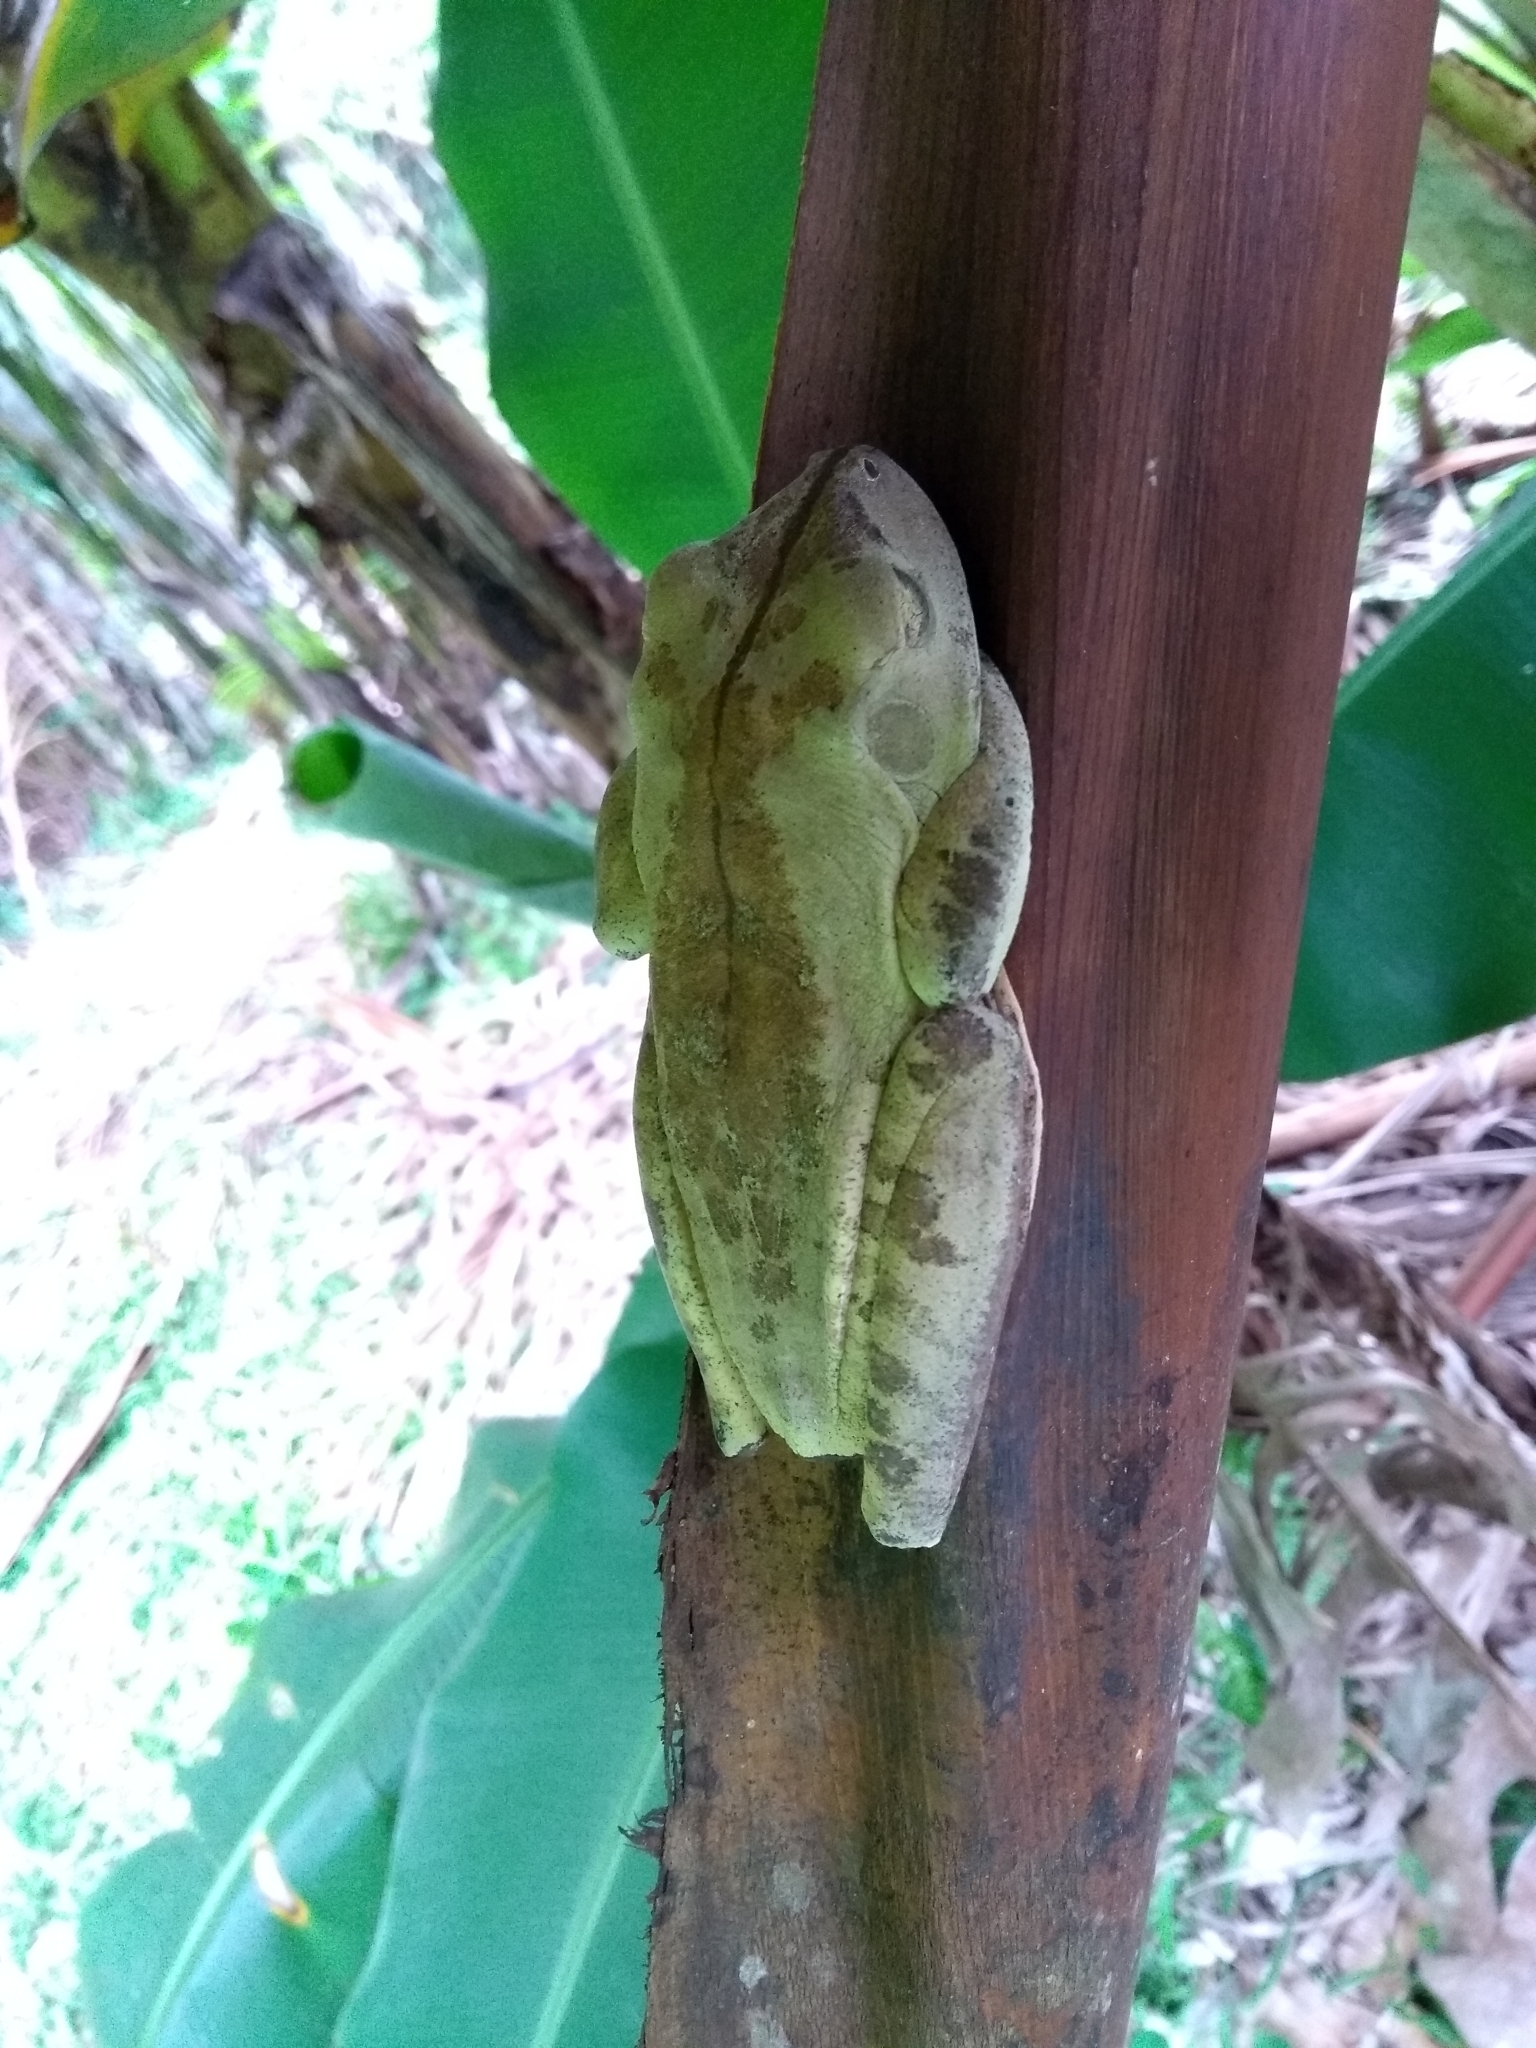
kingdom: Animalia
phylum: Chordata
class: Amphibia
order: Anura
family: Hylidae
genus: Boana
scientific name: Boana faber
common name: Blacksmith tree frog
